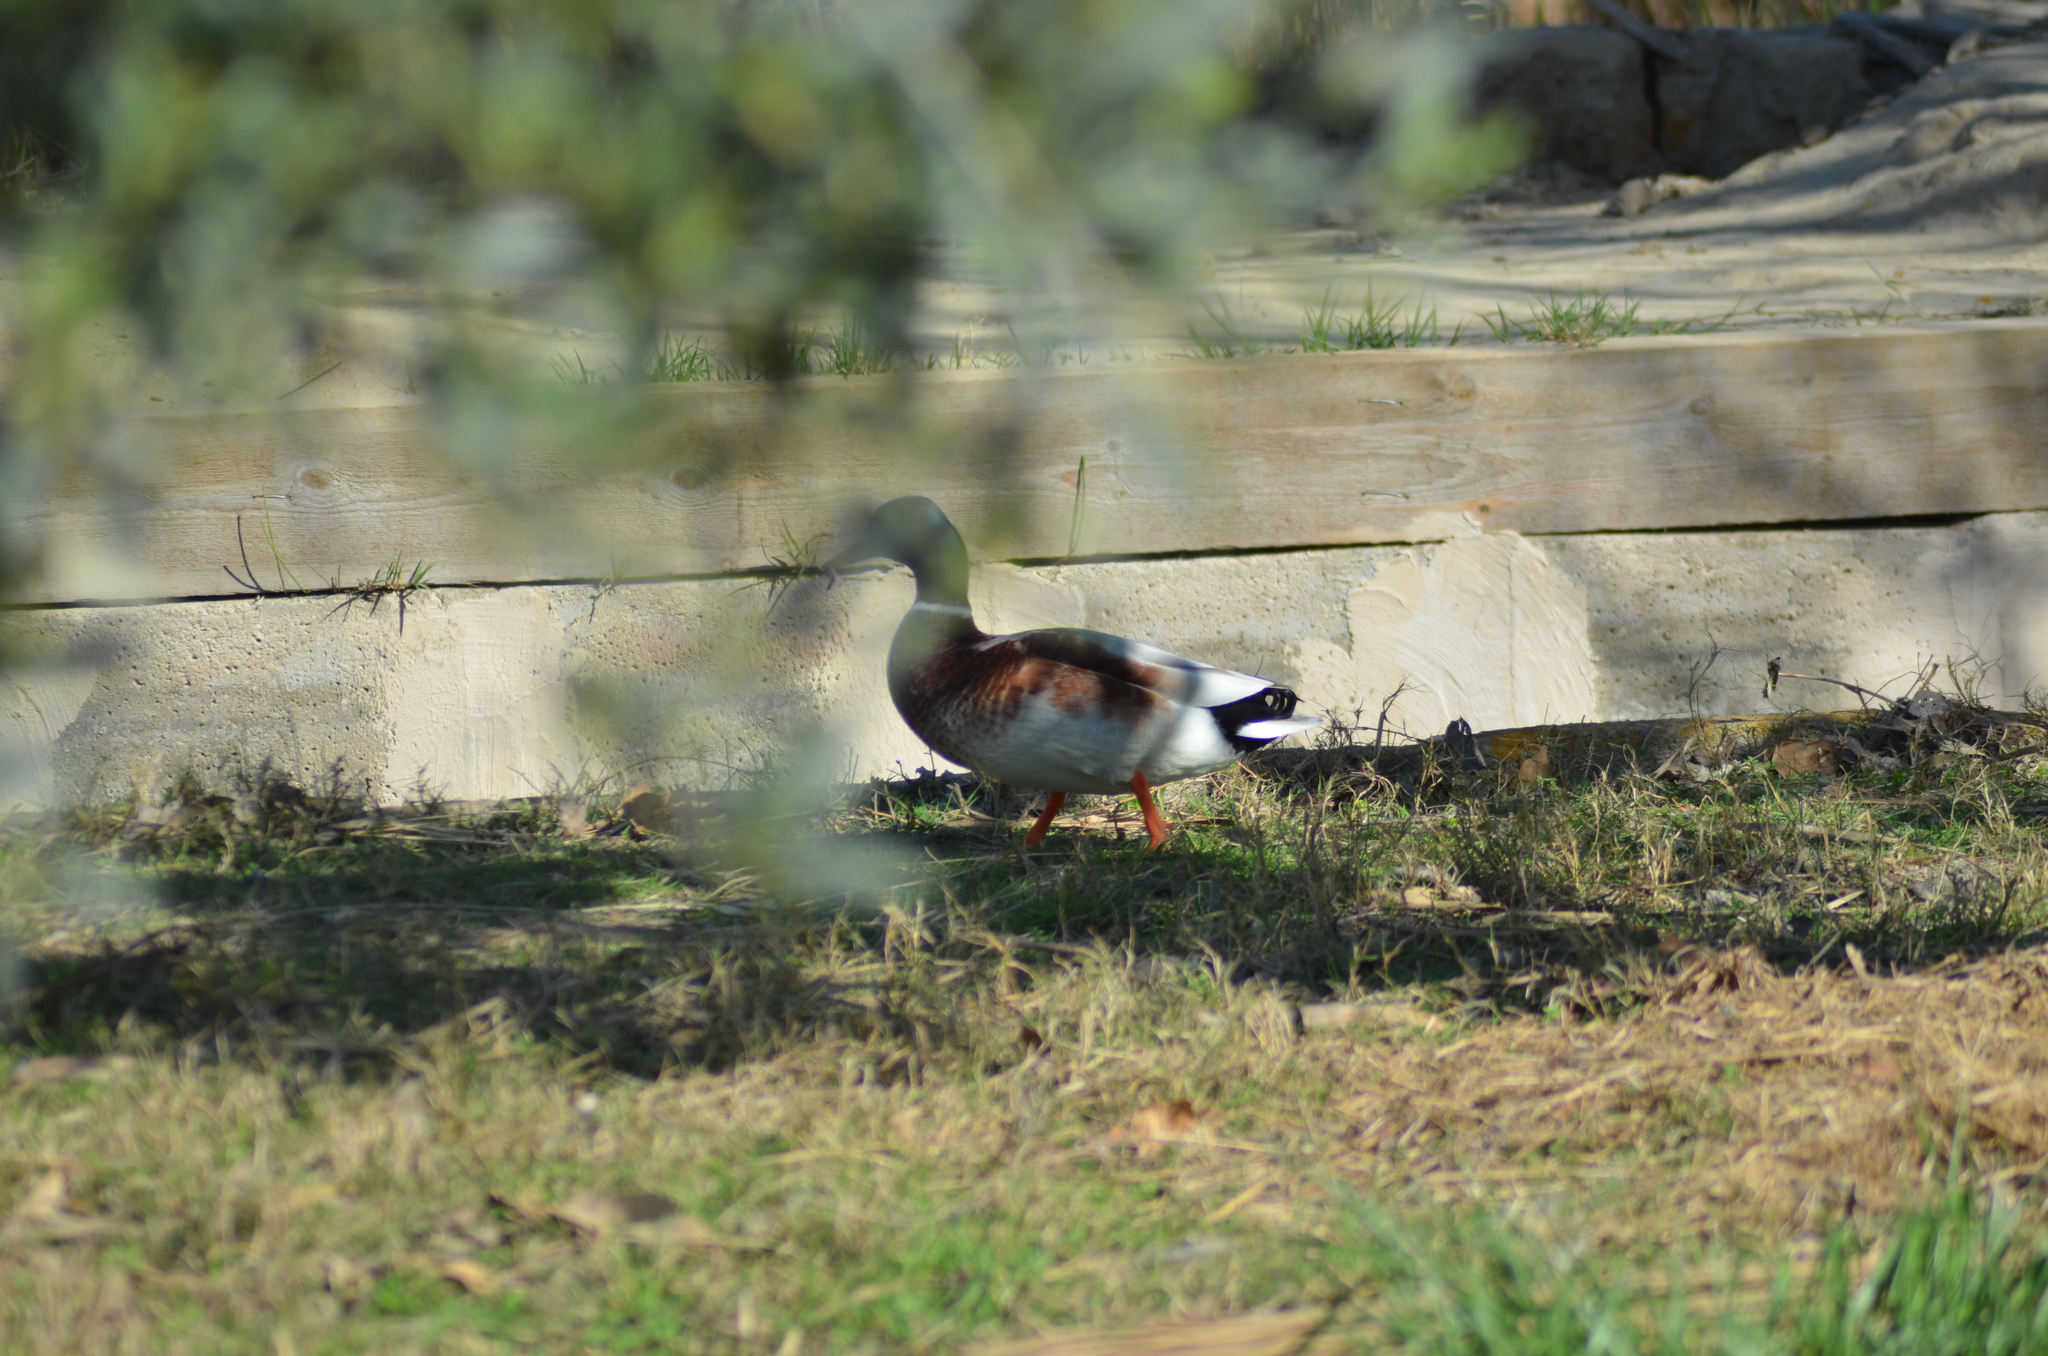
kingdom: Animalia
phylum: Chordata
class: Aves
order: Anseriformes
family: Anatidae
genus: Anas
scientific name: Anas platyrhynchos
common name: Mallard
